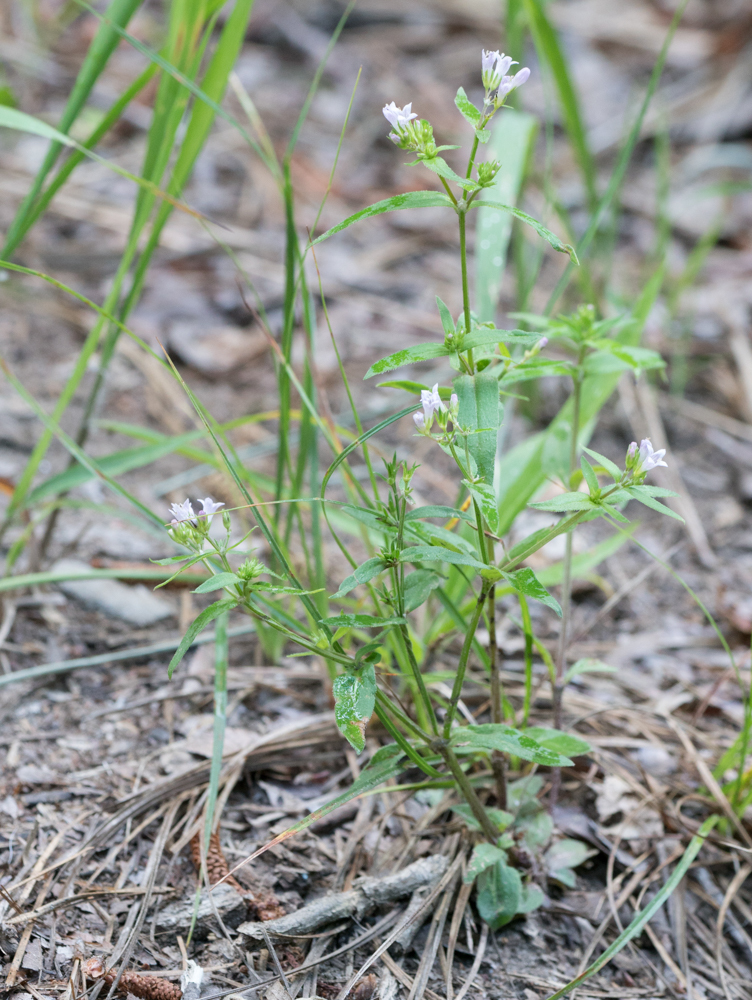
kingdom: Plantae
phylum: Tracheophyta
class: Magnoliopsida
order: Gentianales
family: Rubiaceae
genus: Houstonia
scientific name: Houstonia purpurea
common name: Summer bluet
